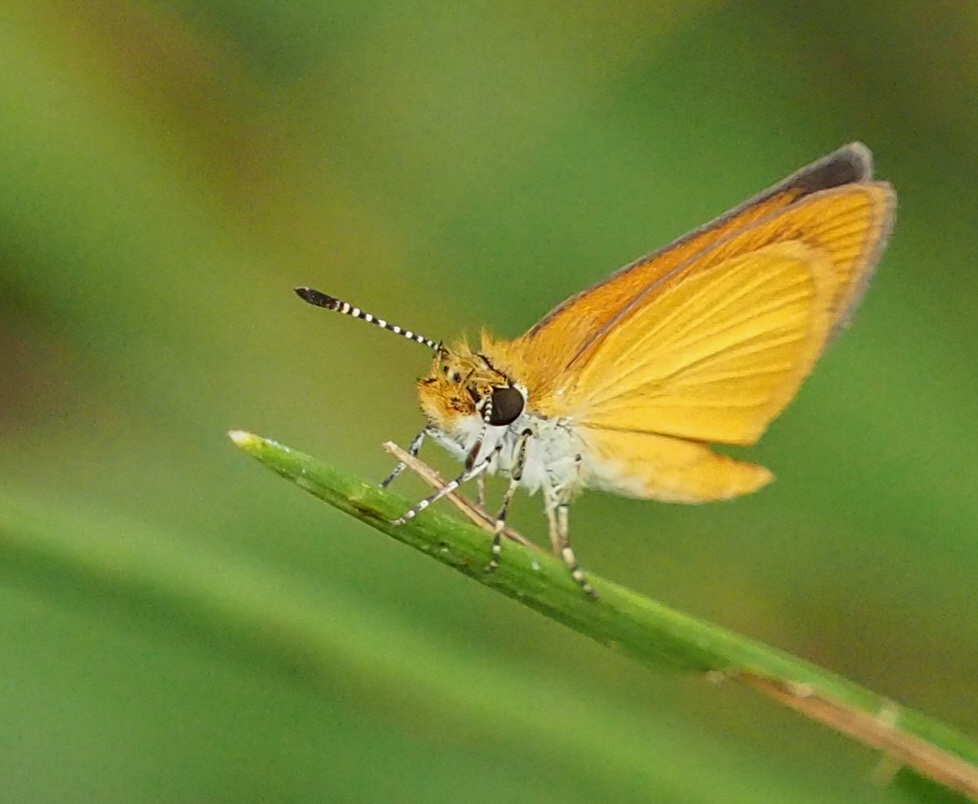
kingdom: Animalia
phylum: Arthropoda
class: Insecta
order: Lepidoptera
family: Hesperiidae
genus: Ancyloxypha
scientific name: Ancyloxypha numitor
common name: Least skipper
